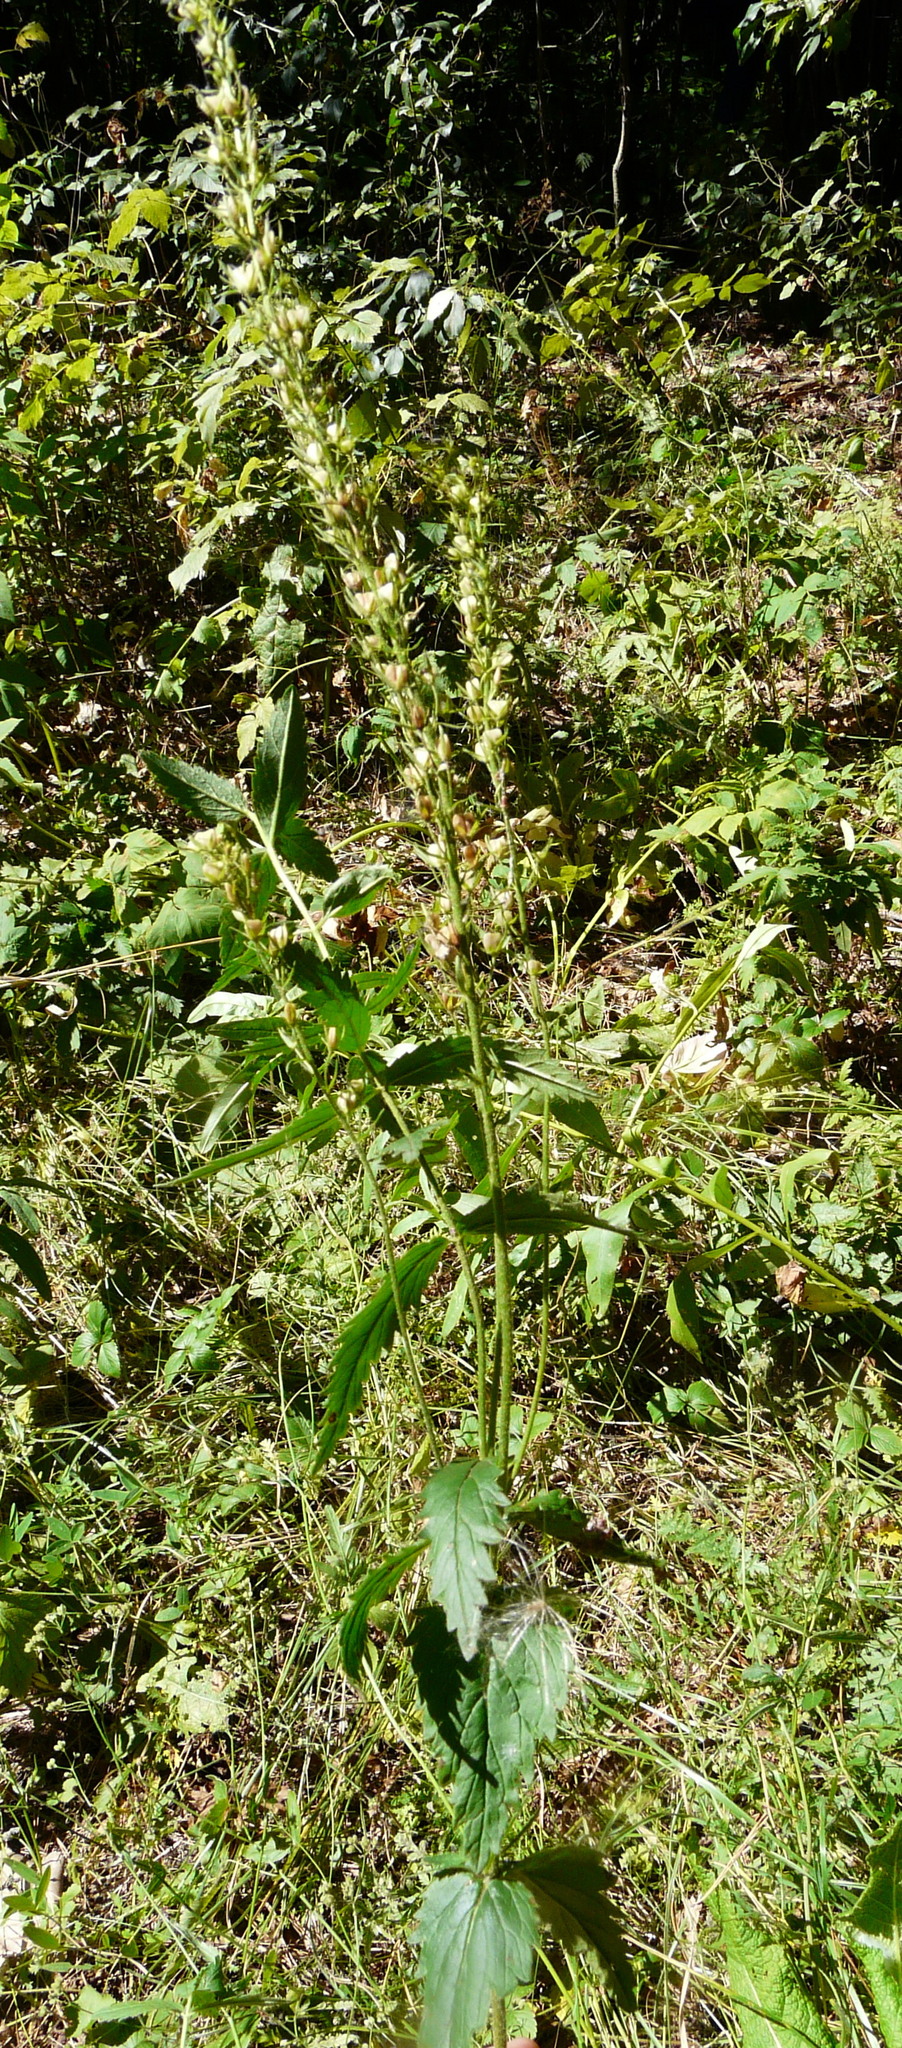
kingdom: Plantae
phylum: Tracheophyta
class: Magnoliopsida
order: Lamiales
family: Plantaginaceae
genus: Veronica
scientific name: Veronica teucrium
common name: Large speedwell
